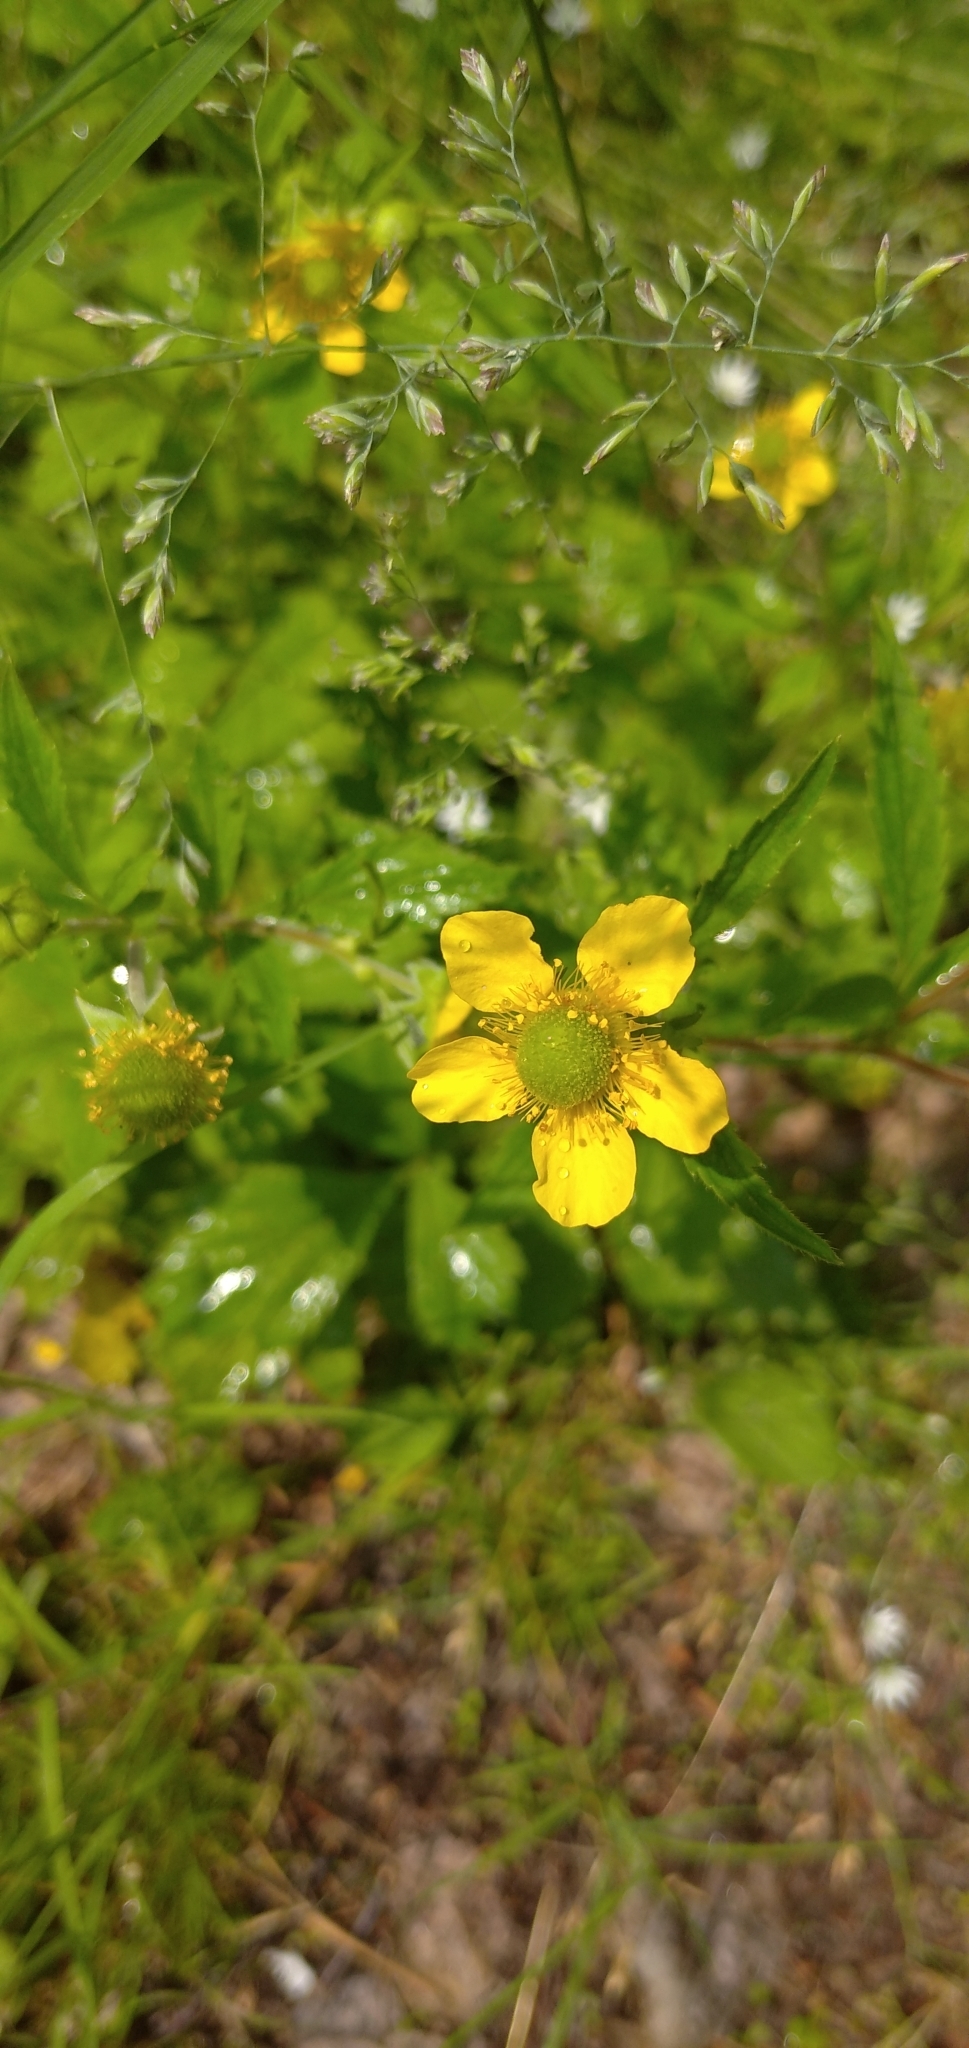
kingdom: Plantae
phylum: Tracheophyta
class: Magnoliopsida
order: Rosales
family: Rosaceae
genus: Geum
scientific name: Geum aleppicum
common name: Yellow avens
